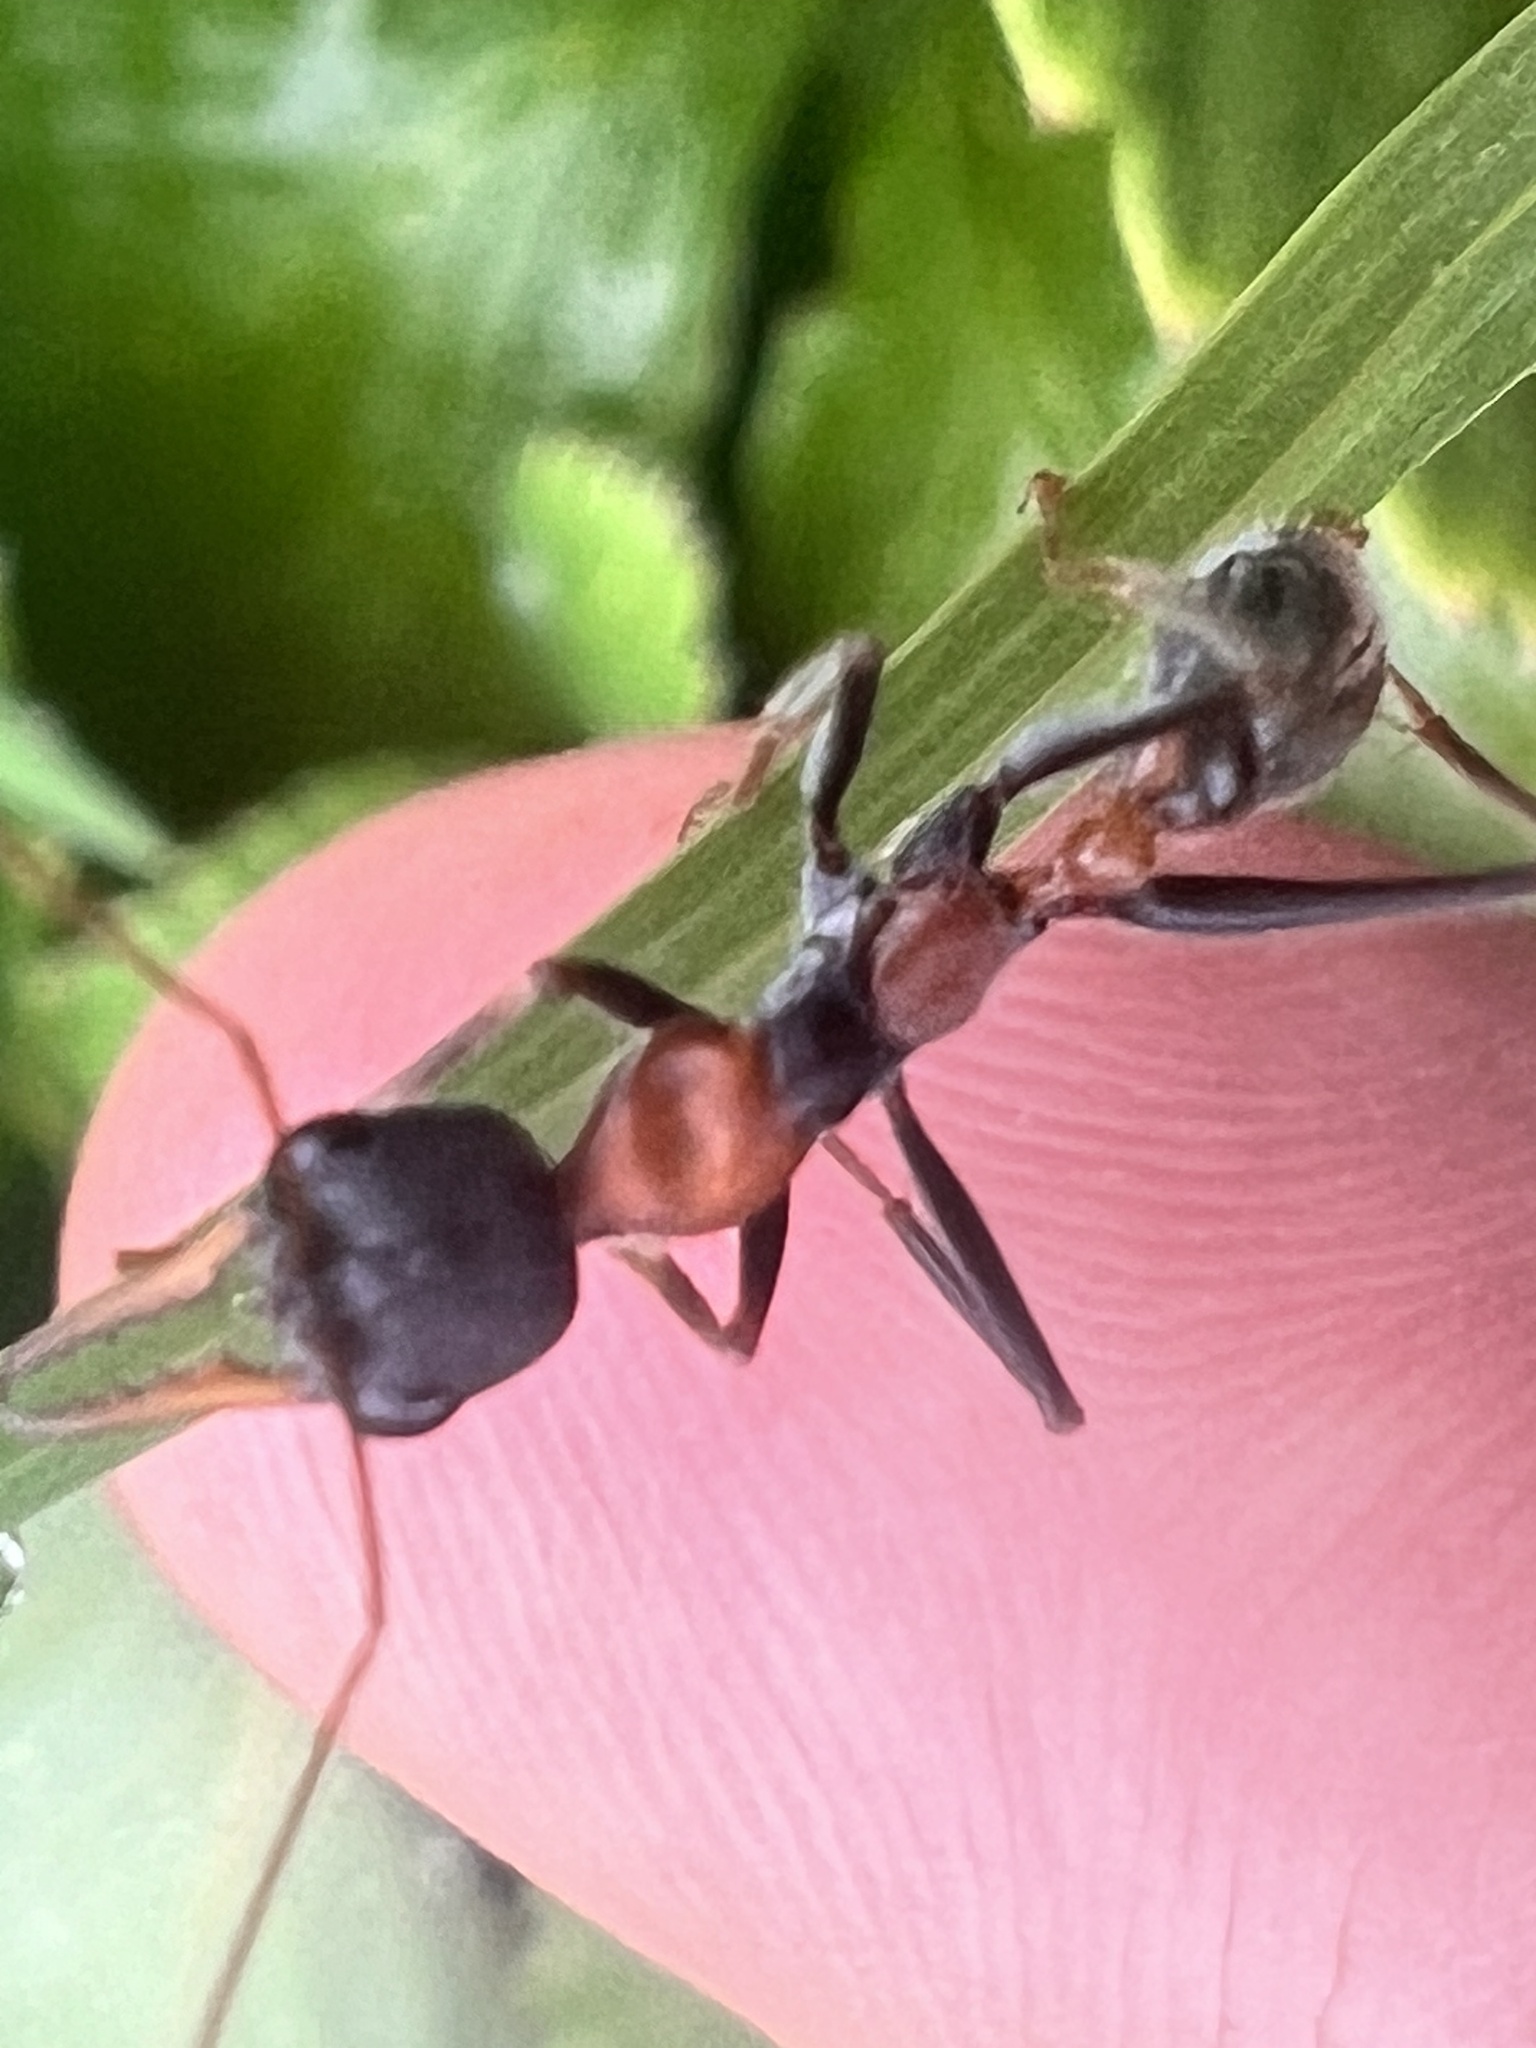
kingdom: Animalia
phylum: Arthropoda
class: Insecta
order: Hymenoptera
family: Formicidae
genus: Myrmecia
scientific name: Myrmecia nigrocincta
